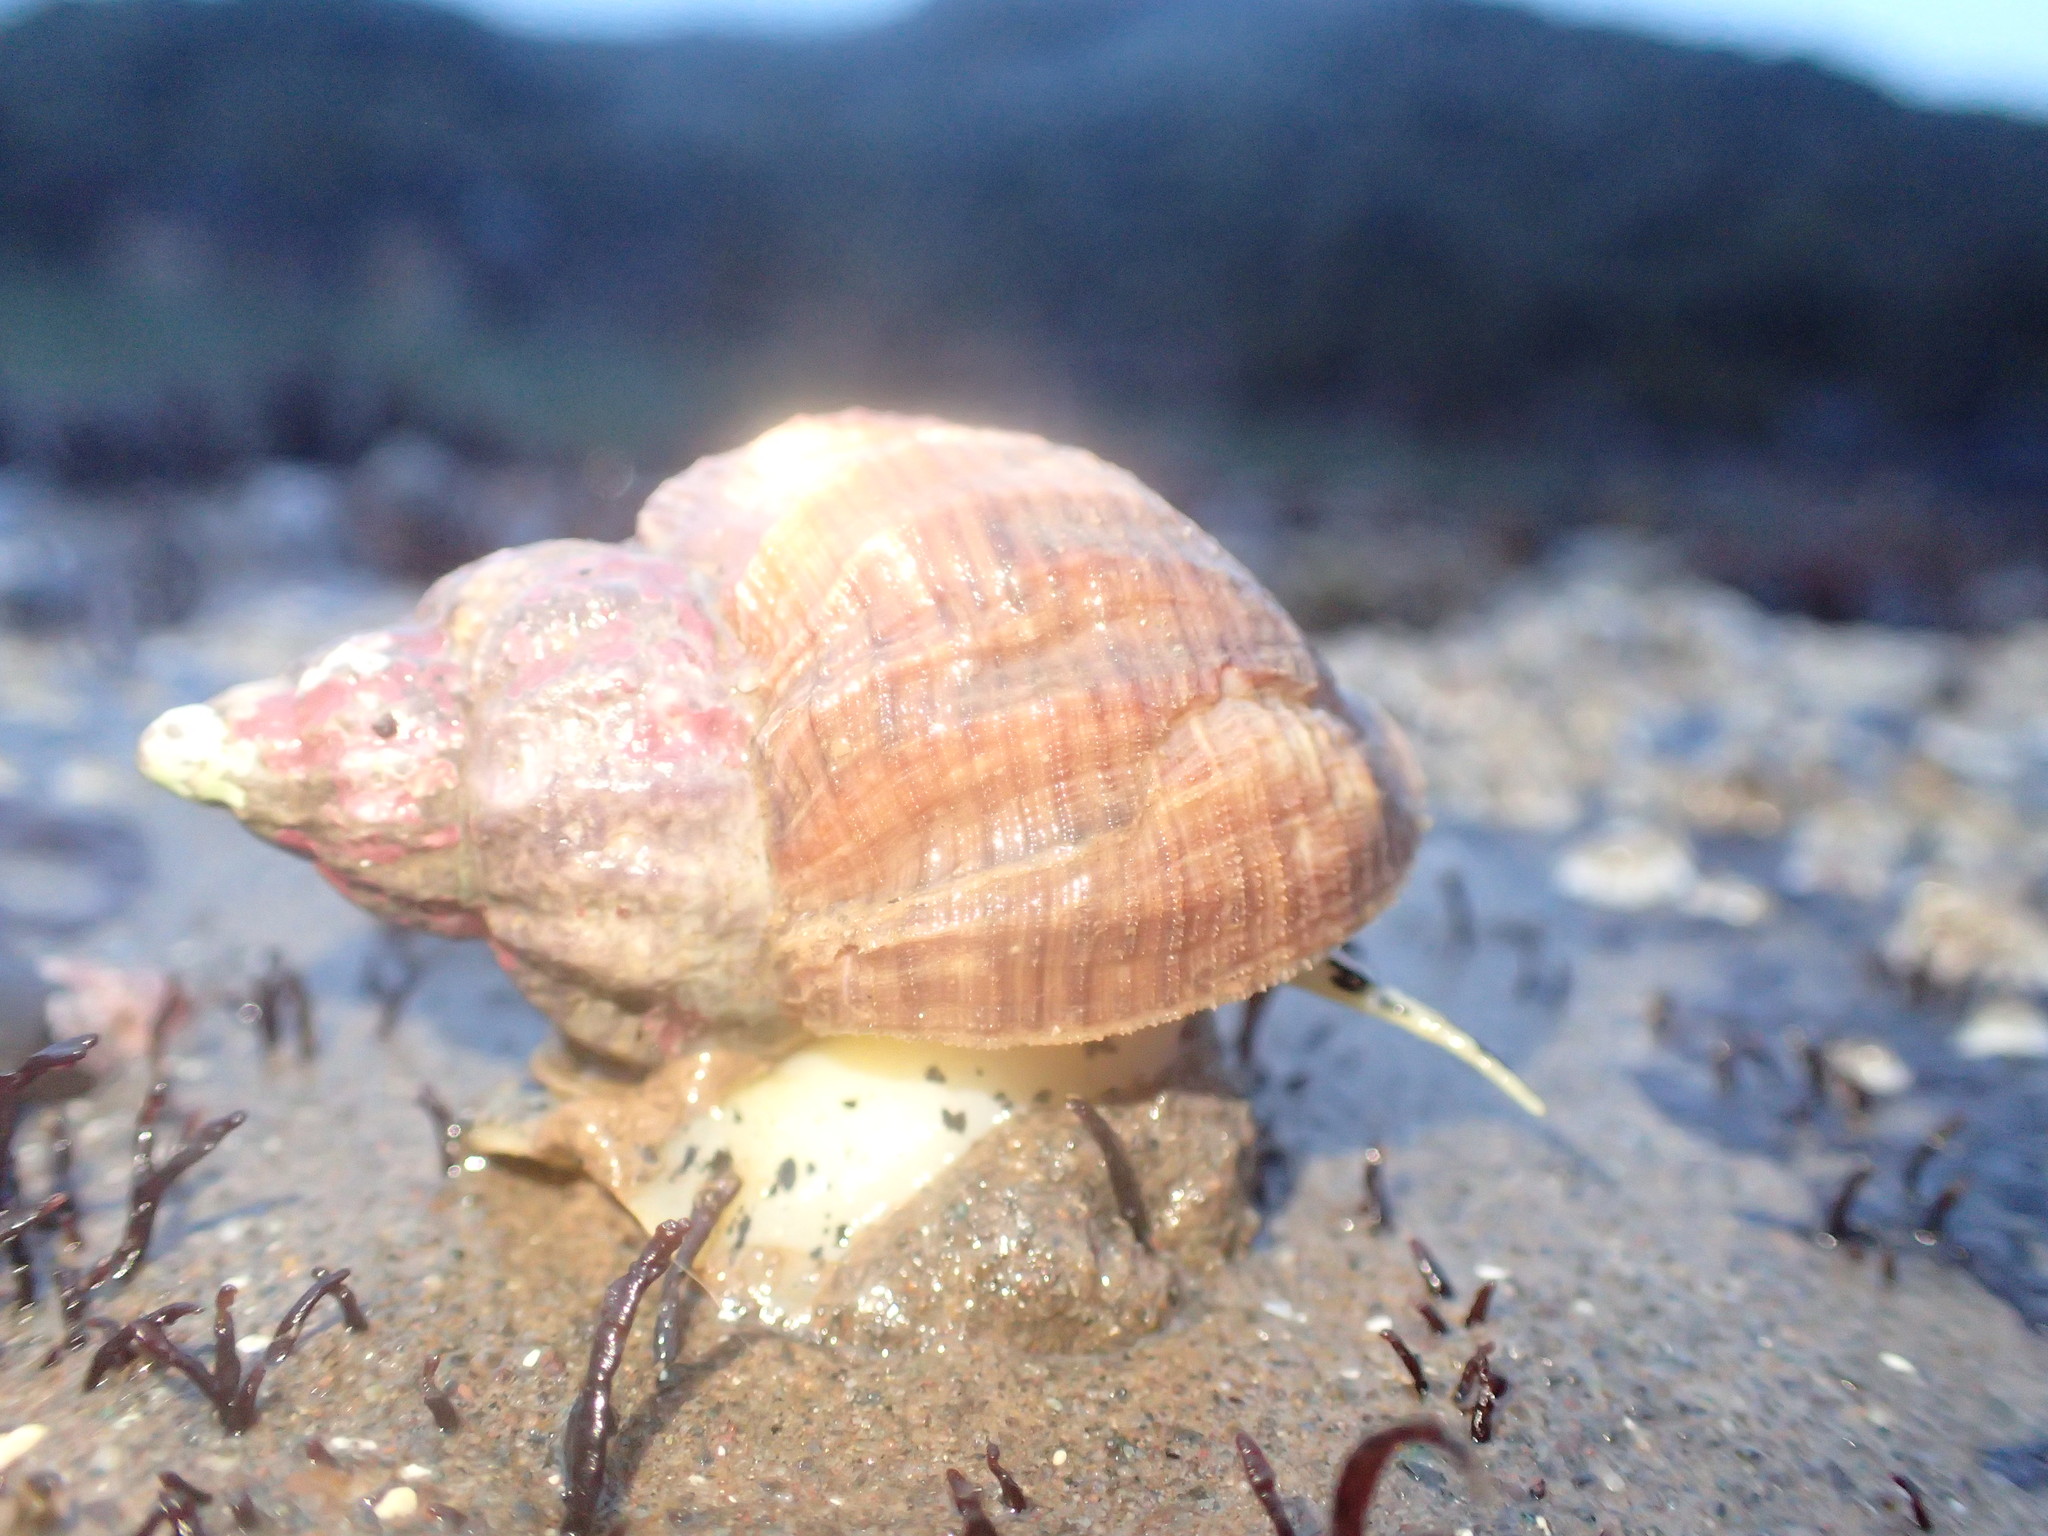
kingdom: Animalia
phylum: Mollusca
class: Gastropoda
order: Neogastropoda
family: Buccinidae
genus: Buccinum
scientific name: Buccinum undatum
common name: Common whelk
